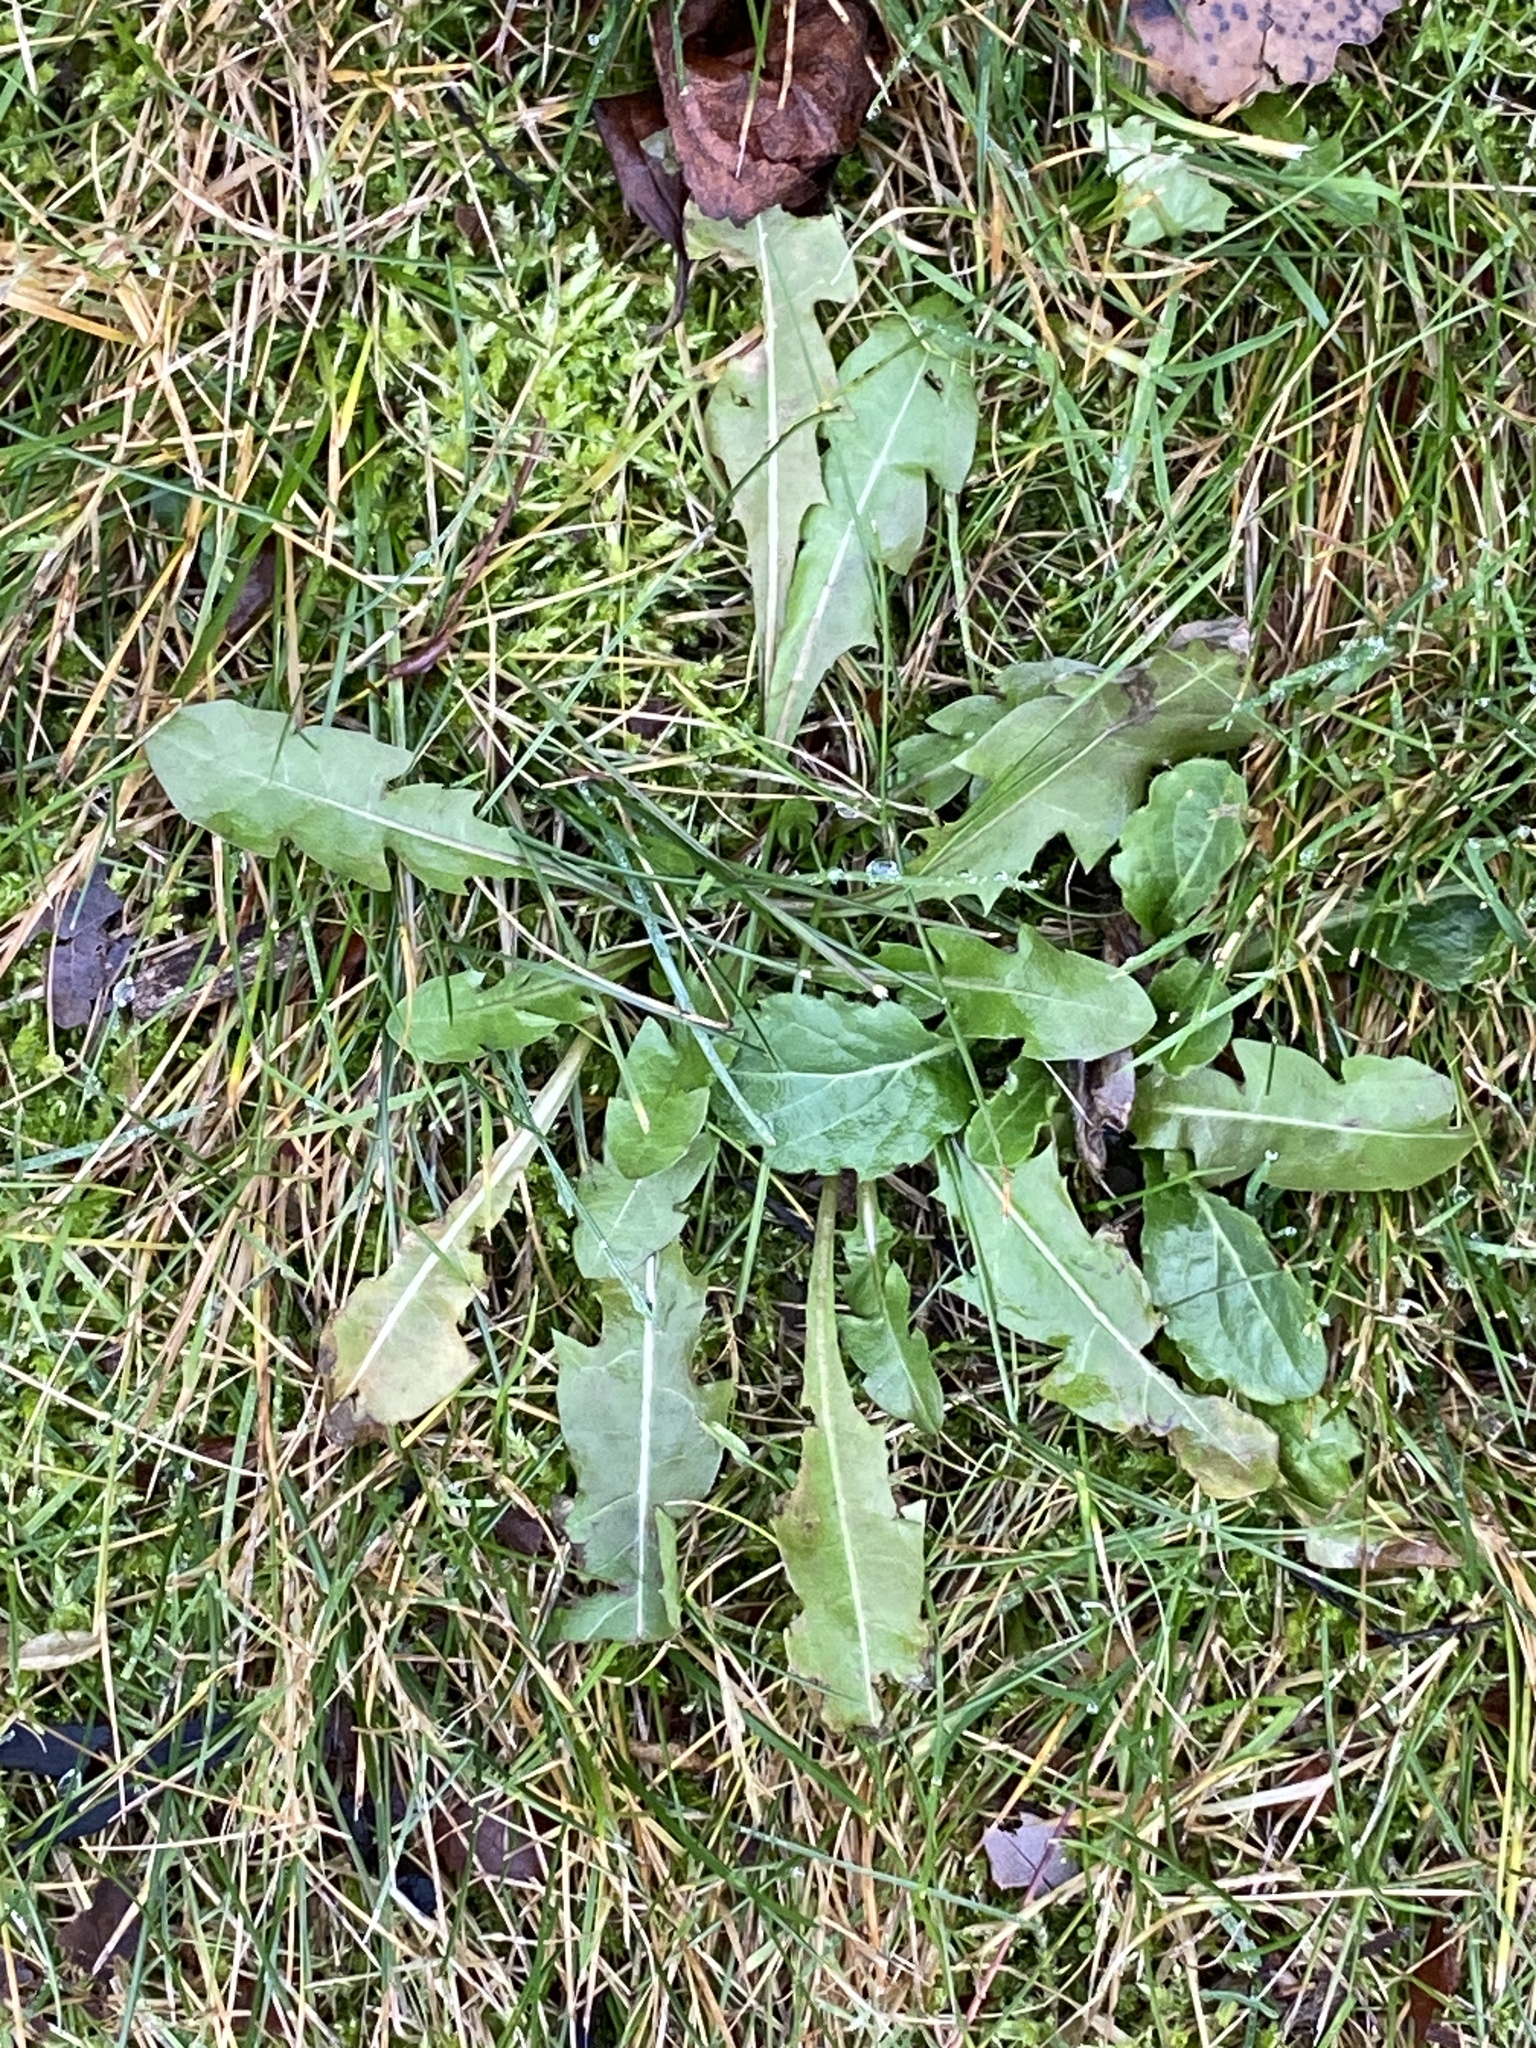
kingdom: Plantae
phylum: Tracheophyta
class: Magnoliopsida
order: Asterales
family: Asteraceae
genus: Taraxacum
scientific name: Taraxacum
